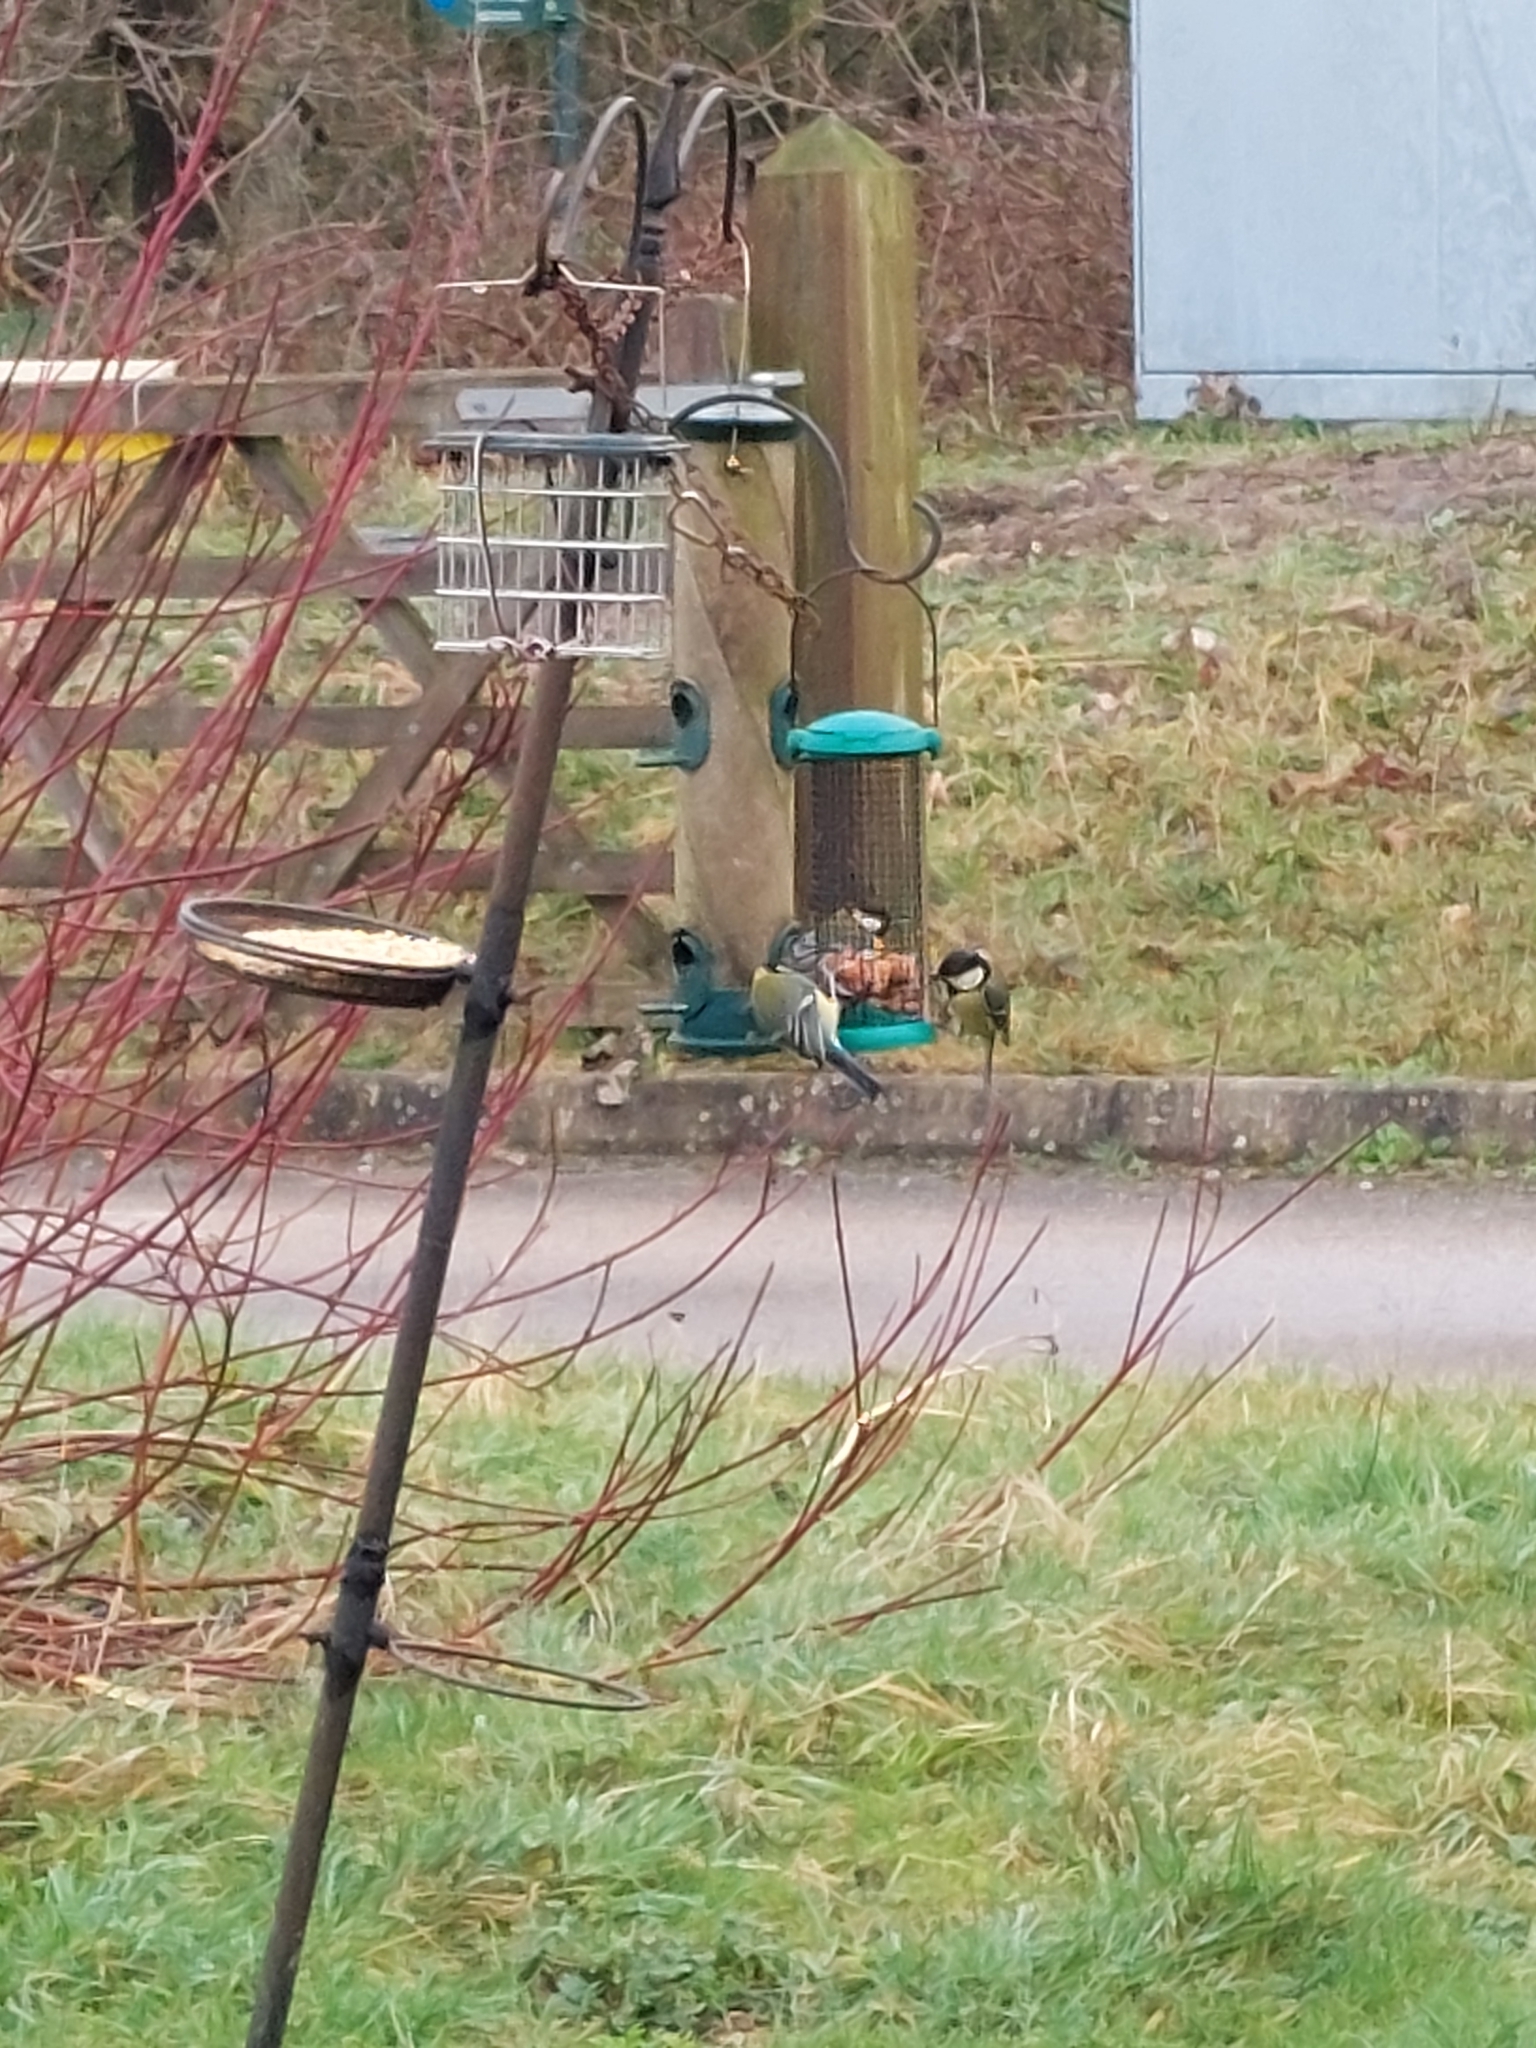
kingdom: Animalia
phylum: Chordata
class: Aves
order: Passeriformes
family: Paridae
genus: Parus
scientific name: Parus major
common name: Great tit
